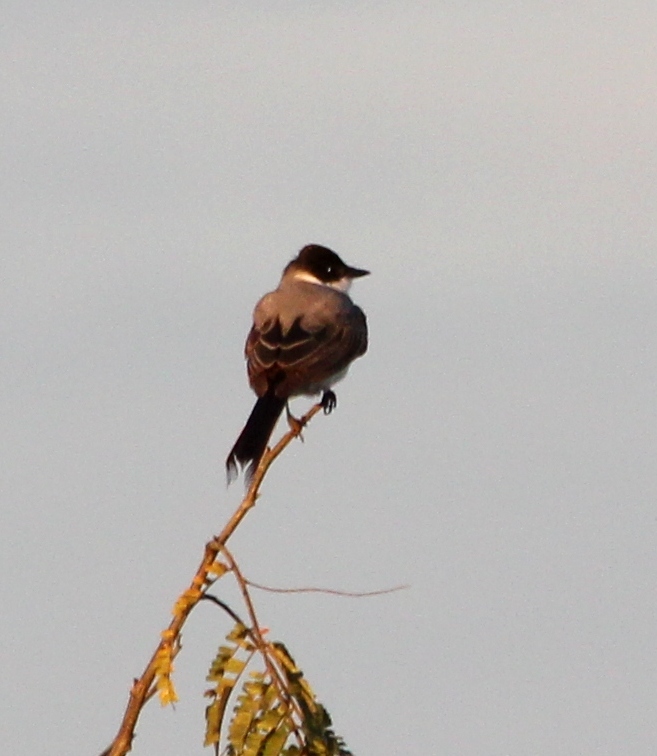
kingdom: Animalia
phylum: Chordata
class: Aves
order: Passeriformes
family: Tyrannidae
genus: Tyrannus
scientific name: Tyrannus savana
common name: Fork-tailed flycatcher
